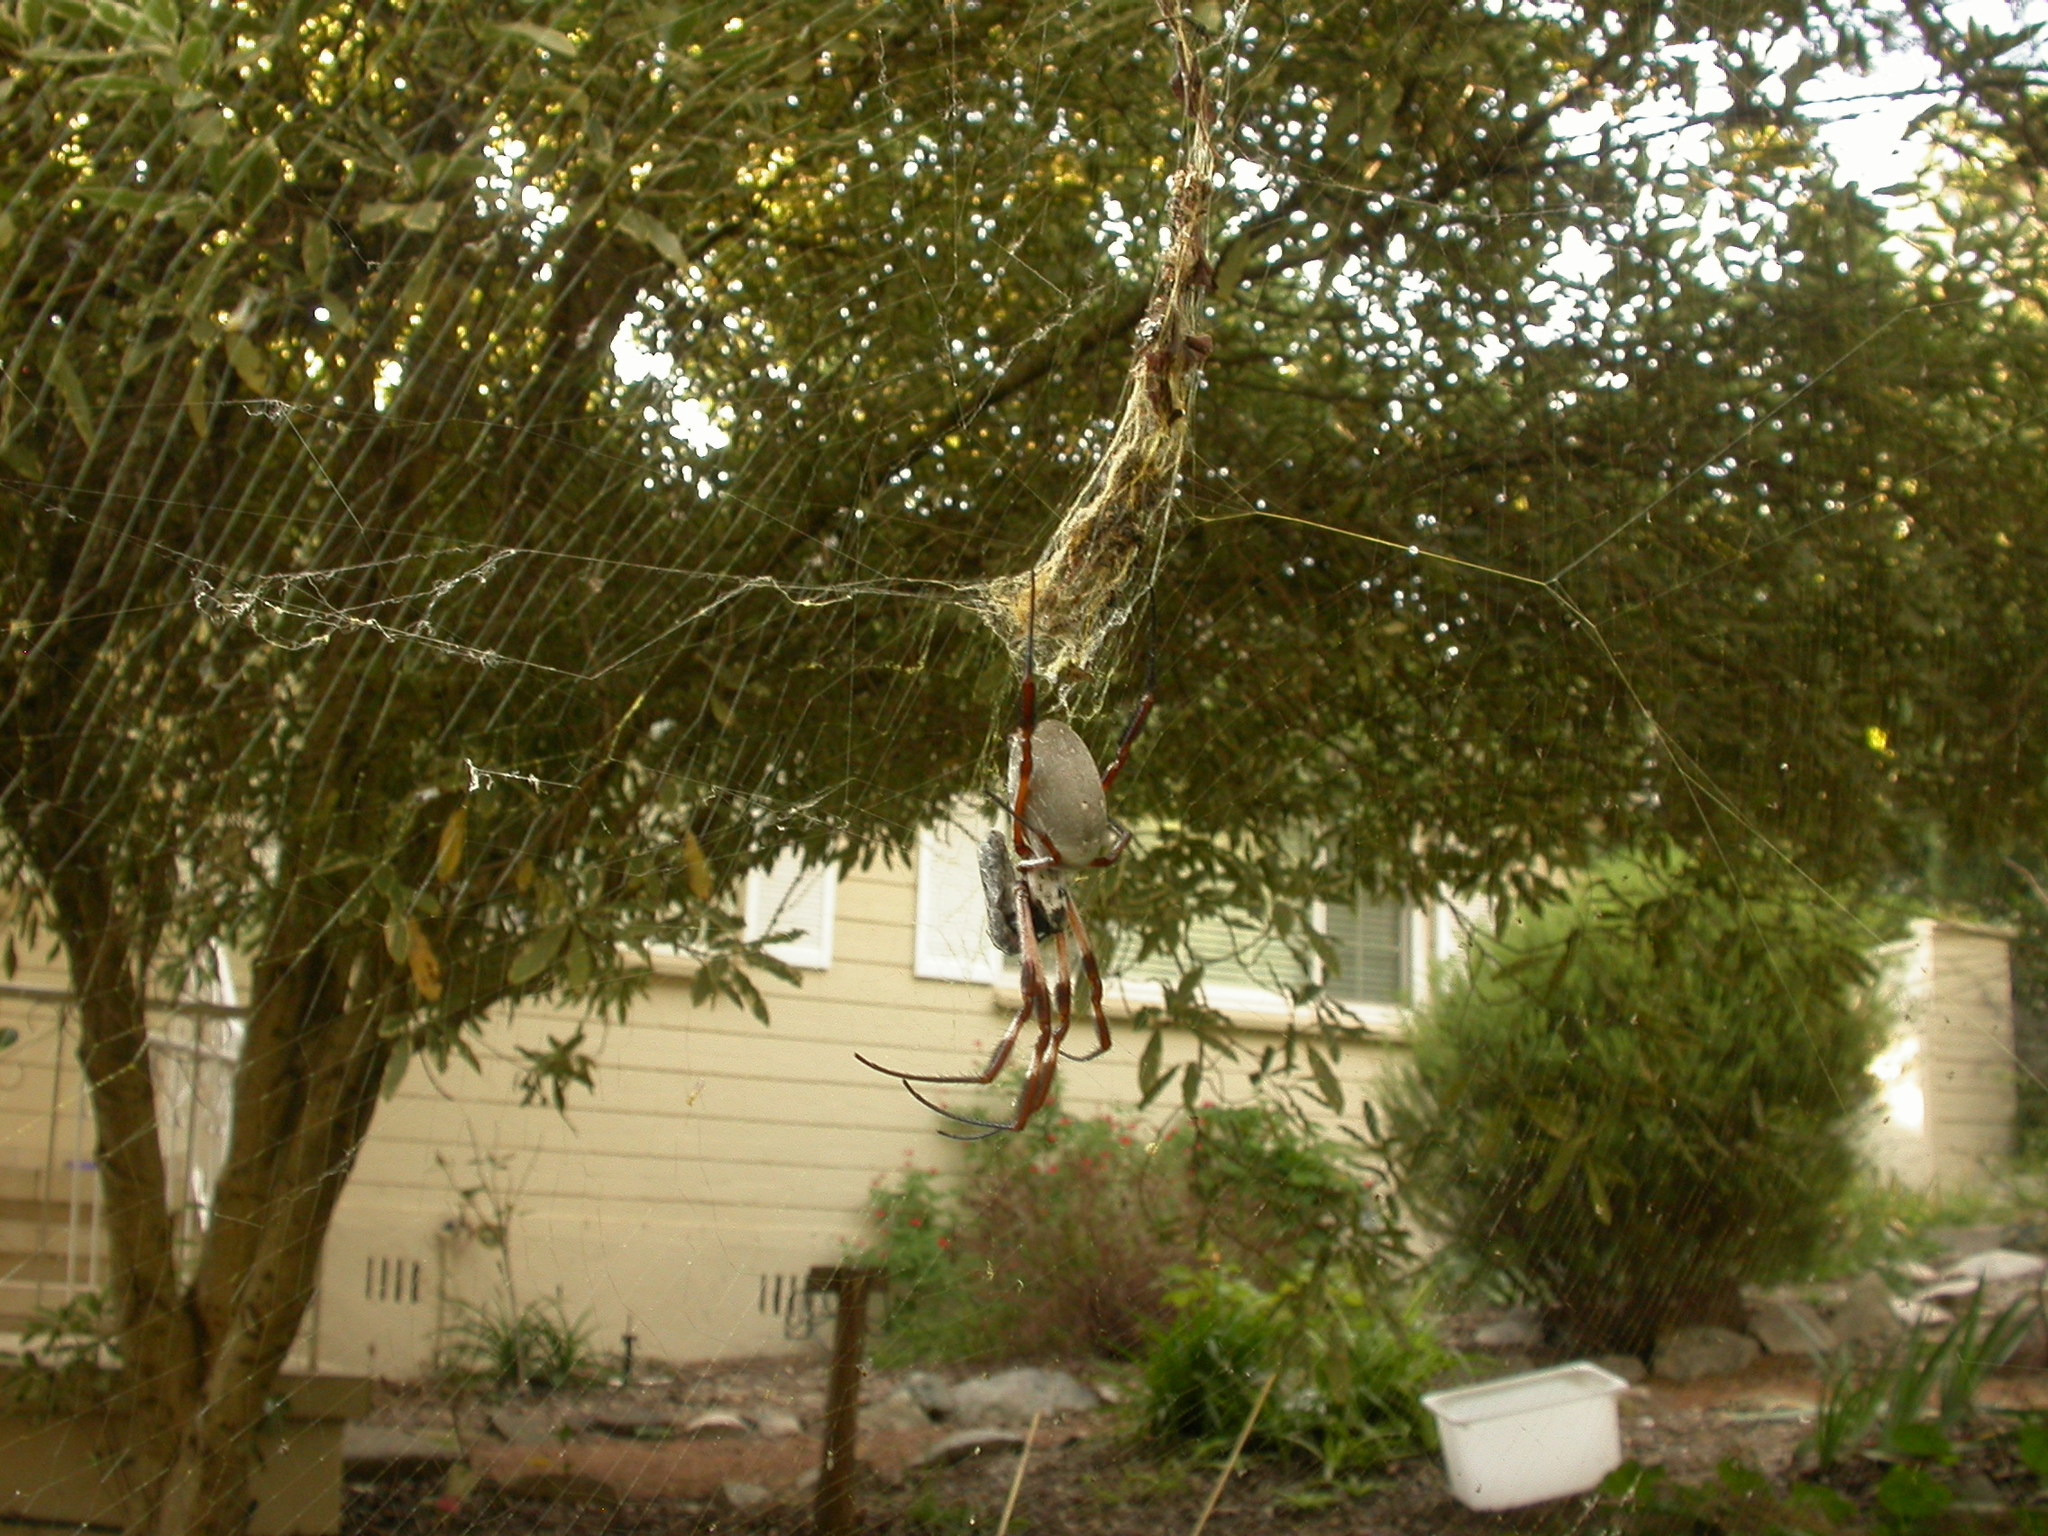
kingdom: Animalia
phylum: Arthropoda
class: Arachnida
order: Araneae
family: Araneidae
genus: Trichonephila
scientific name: Trichonephila edulis
